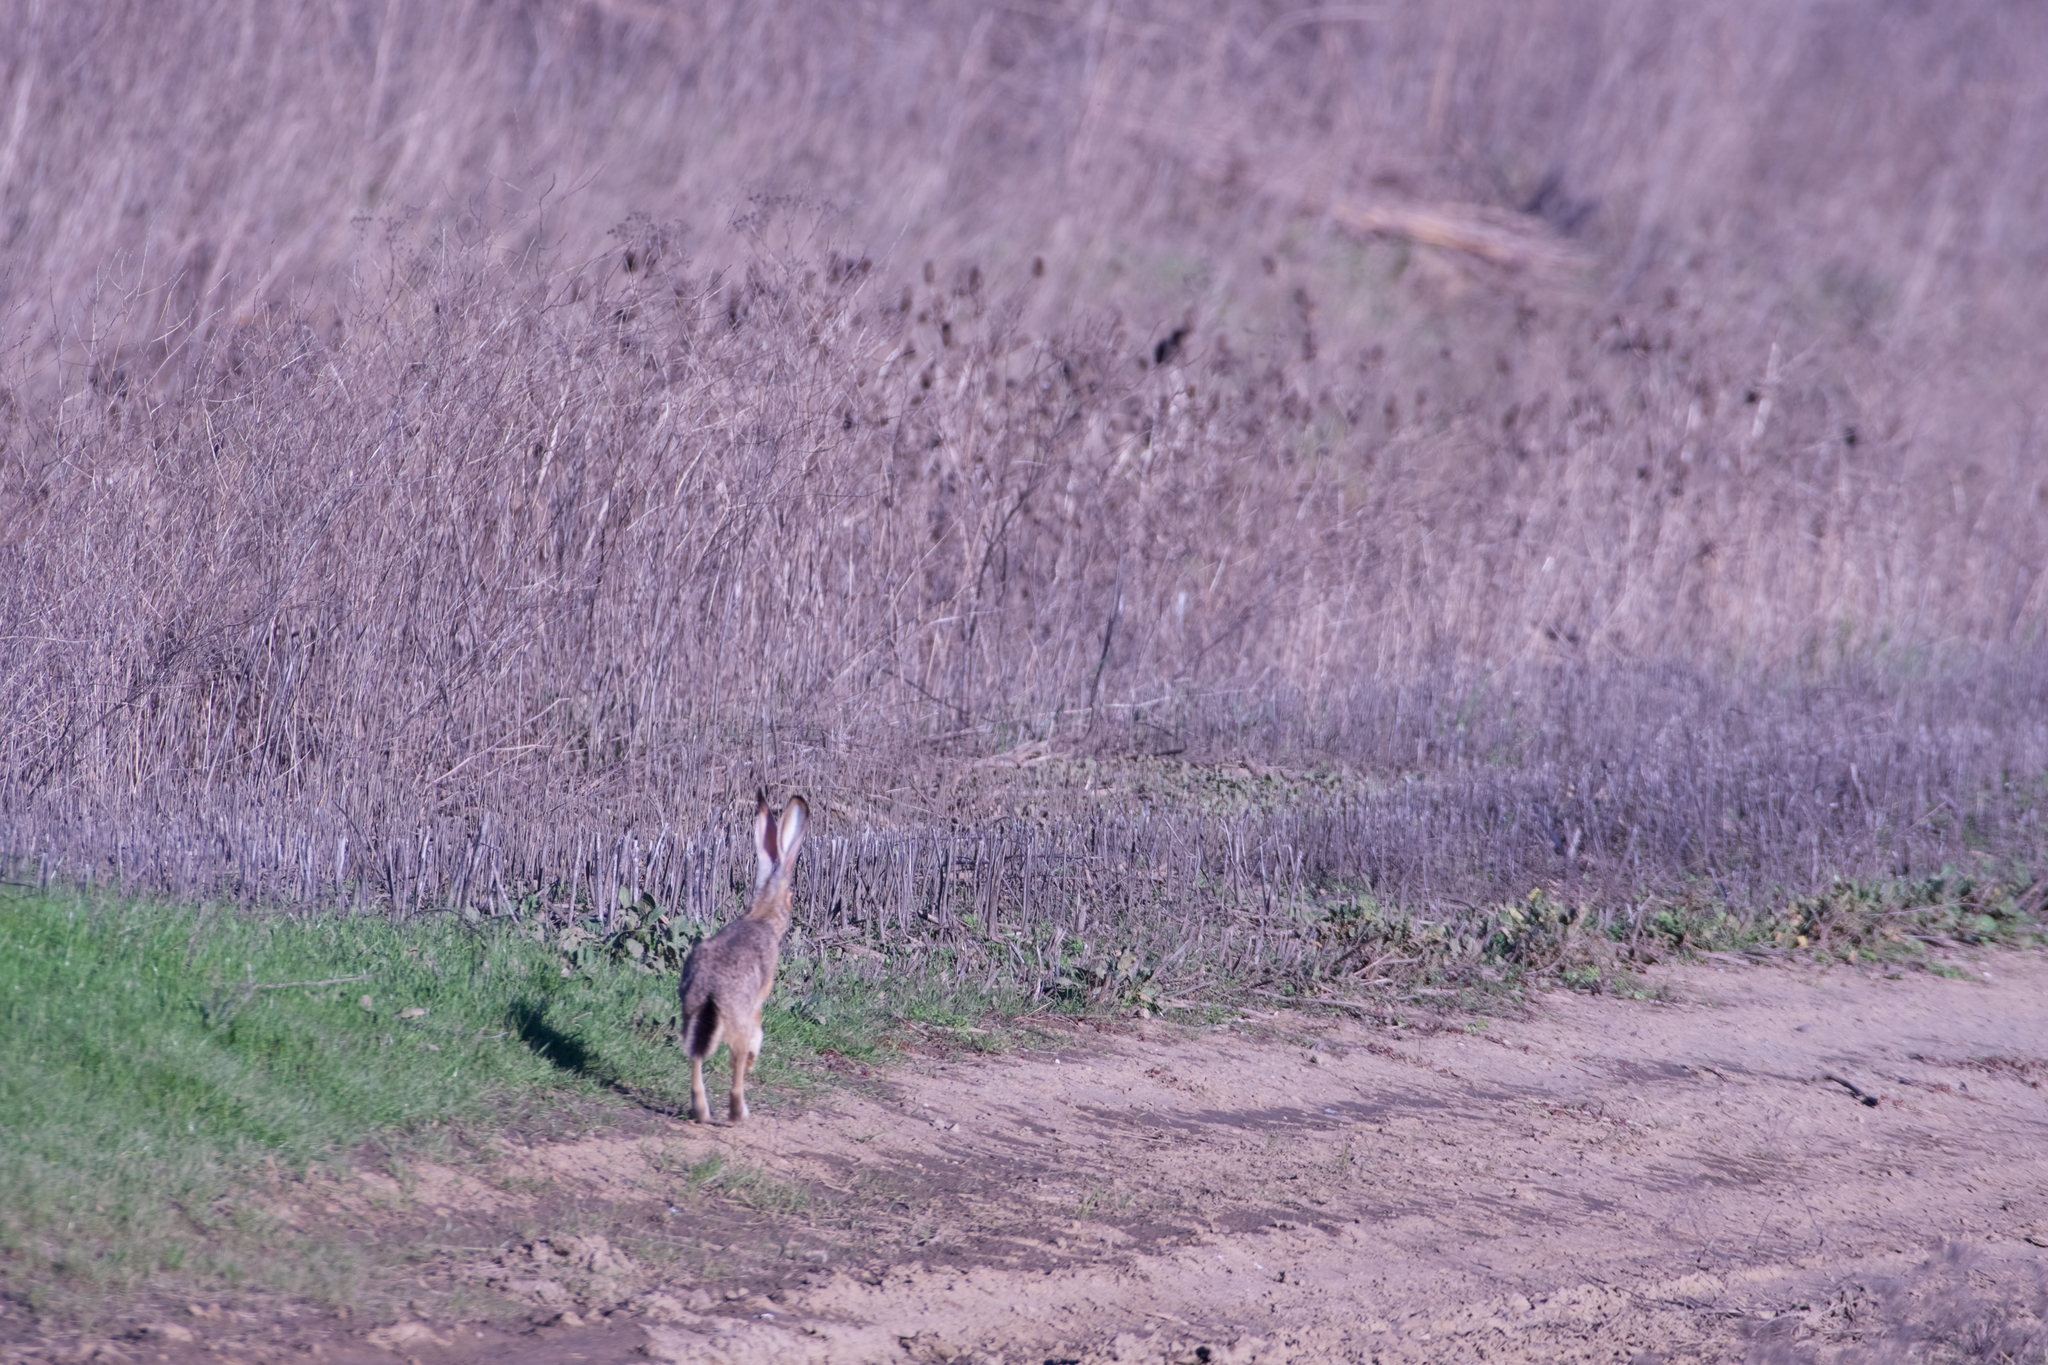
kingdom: Animalia
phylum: Chordata
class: Mammalia
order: Lagomorpha
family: Leporidae
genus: Lepus
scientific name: Lepus californicus
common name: Black-tailed jackrabbit
